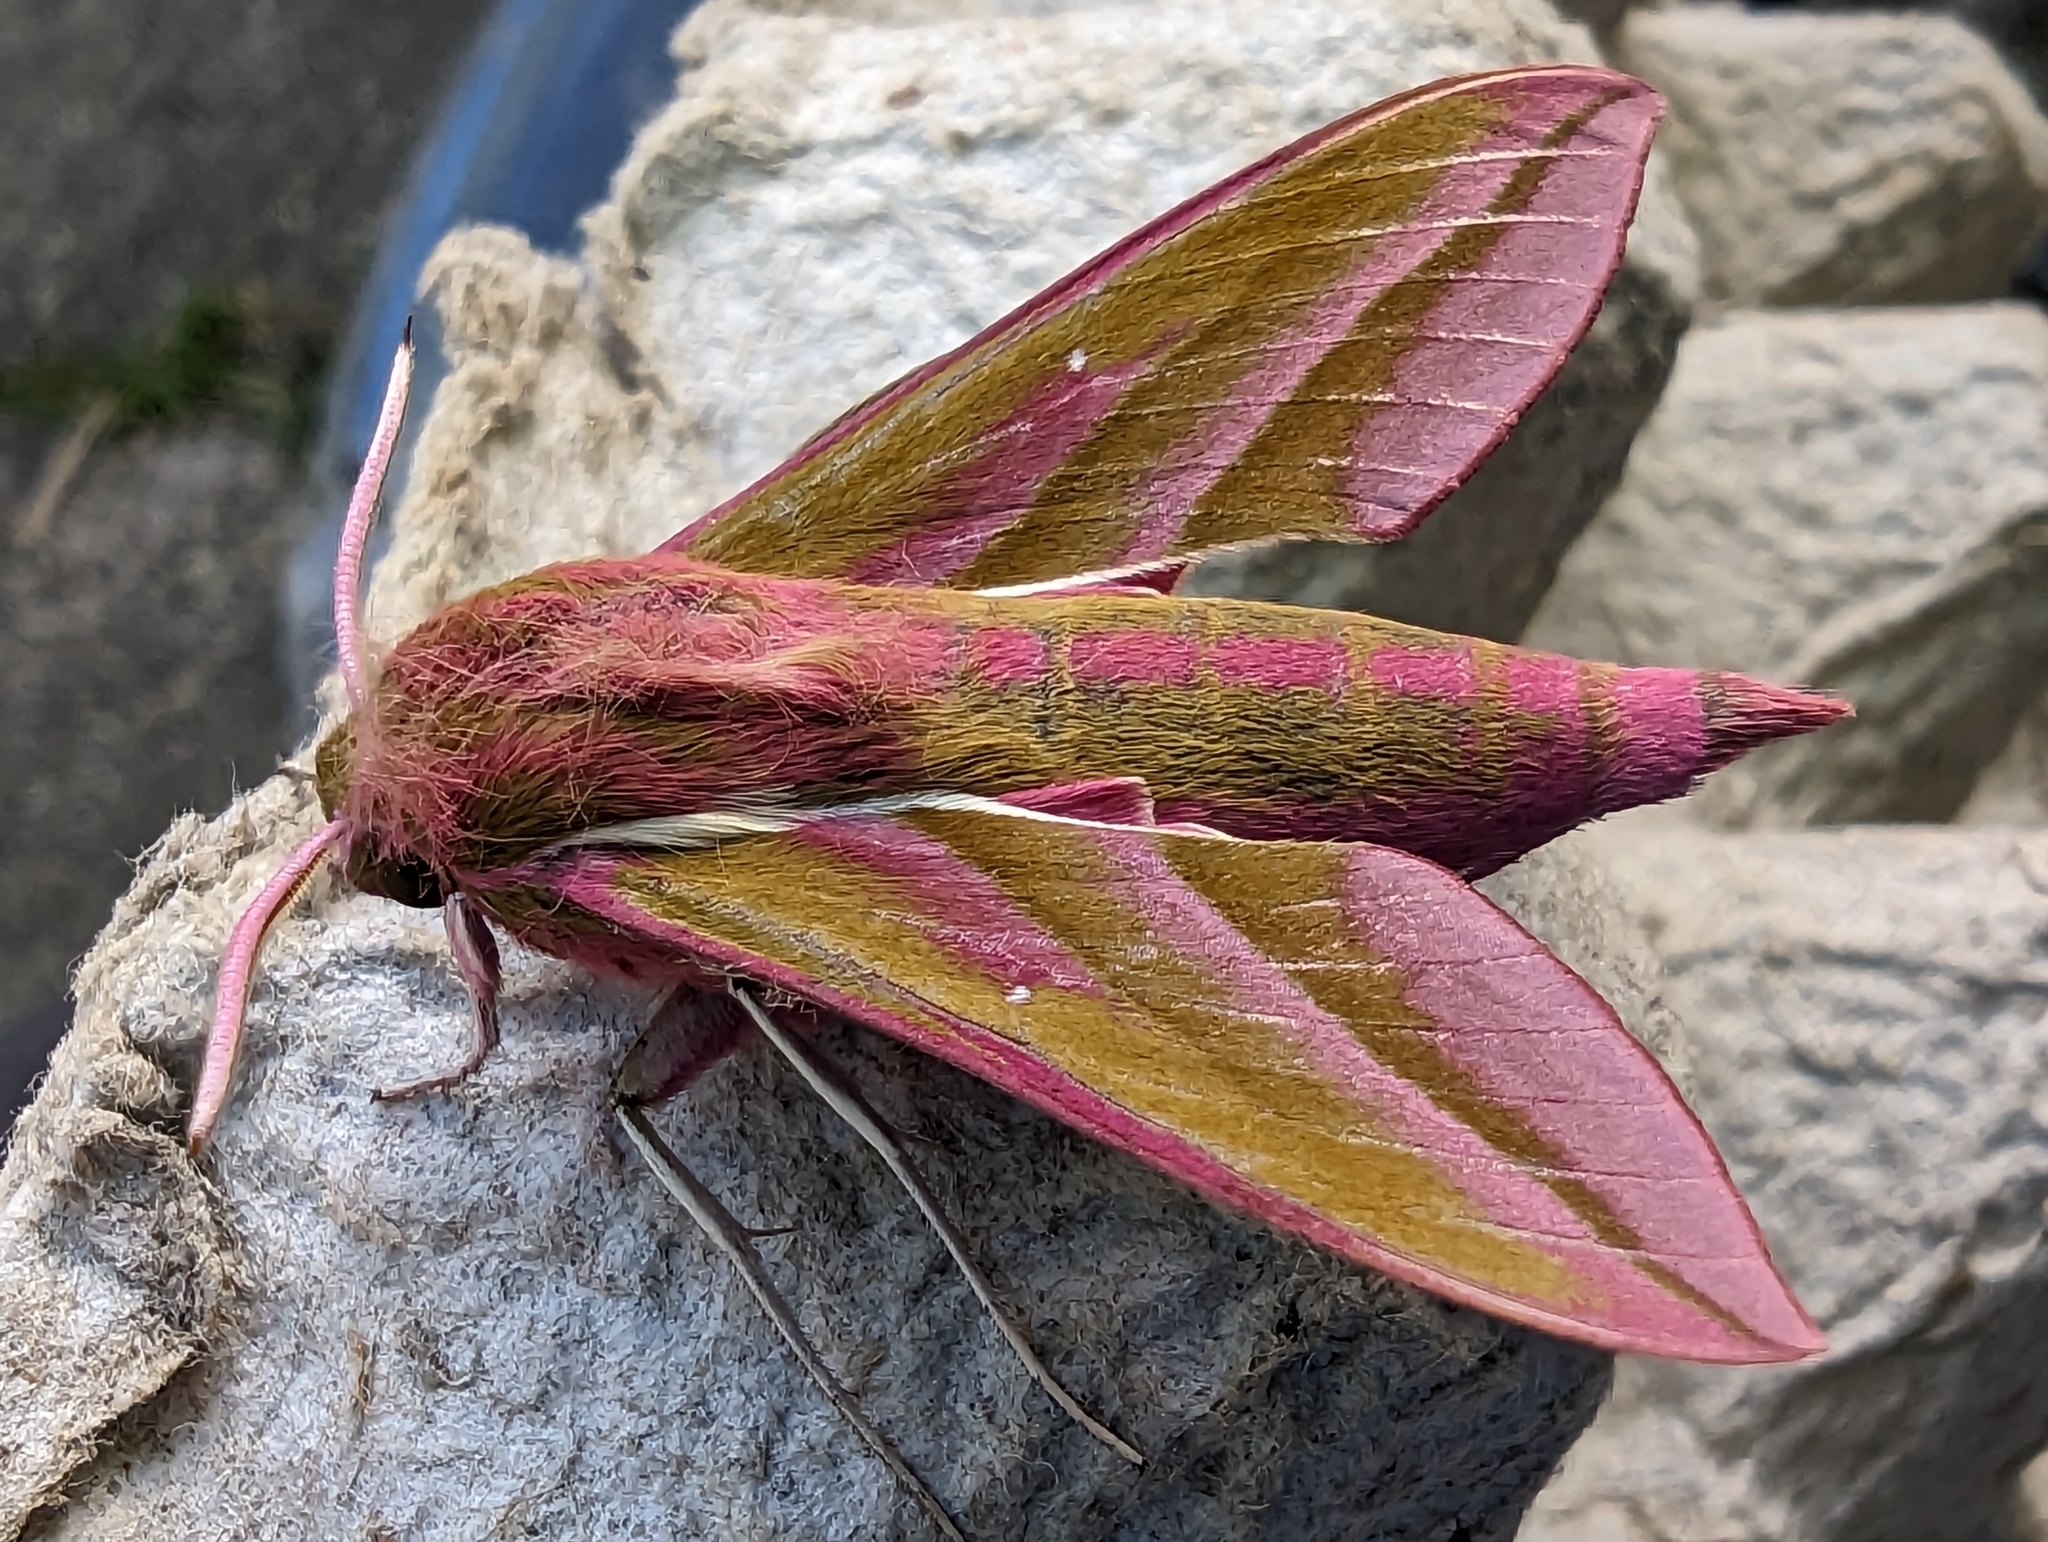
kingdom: Animalia
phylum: Arthropoda
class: Insecta
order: Lepidoptera
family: Sphingidae
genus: Deilephila
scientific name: Deilephila elpenor
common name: Elephant hawk-moth
